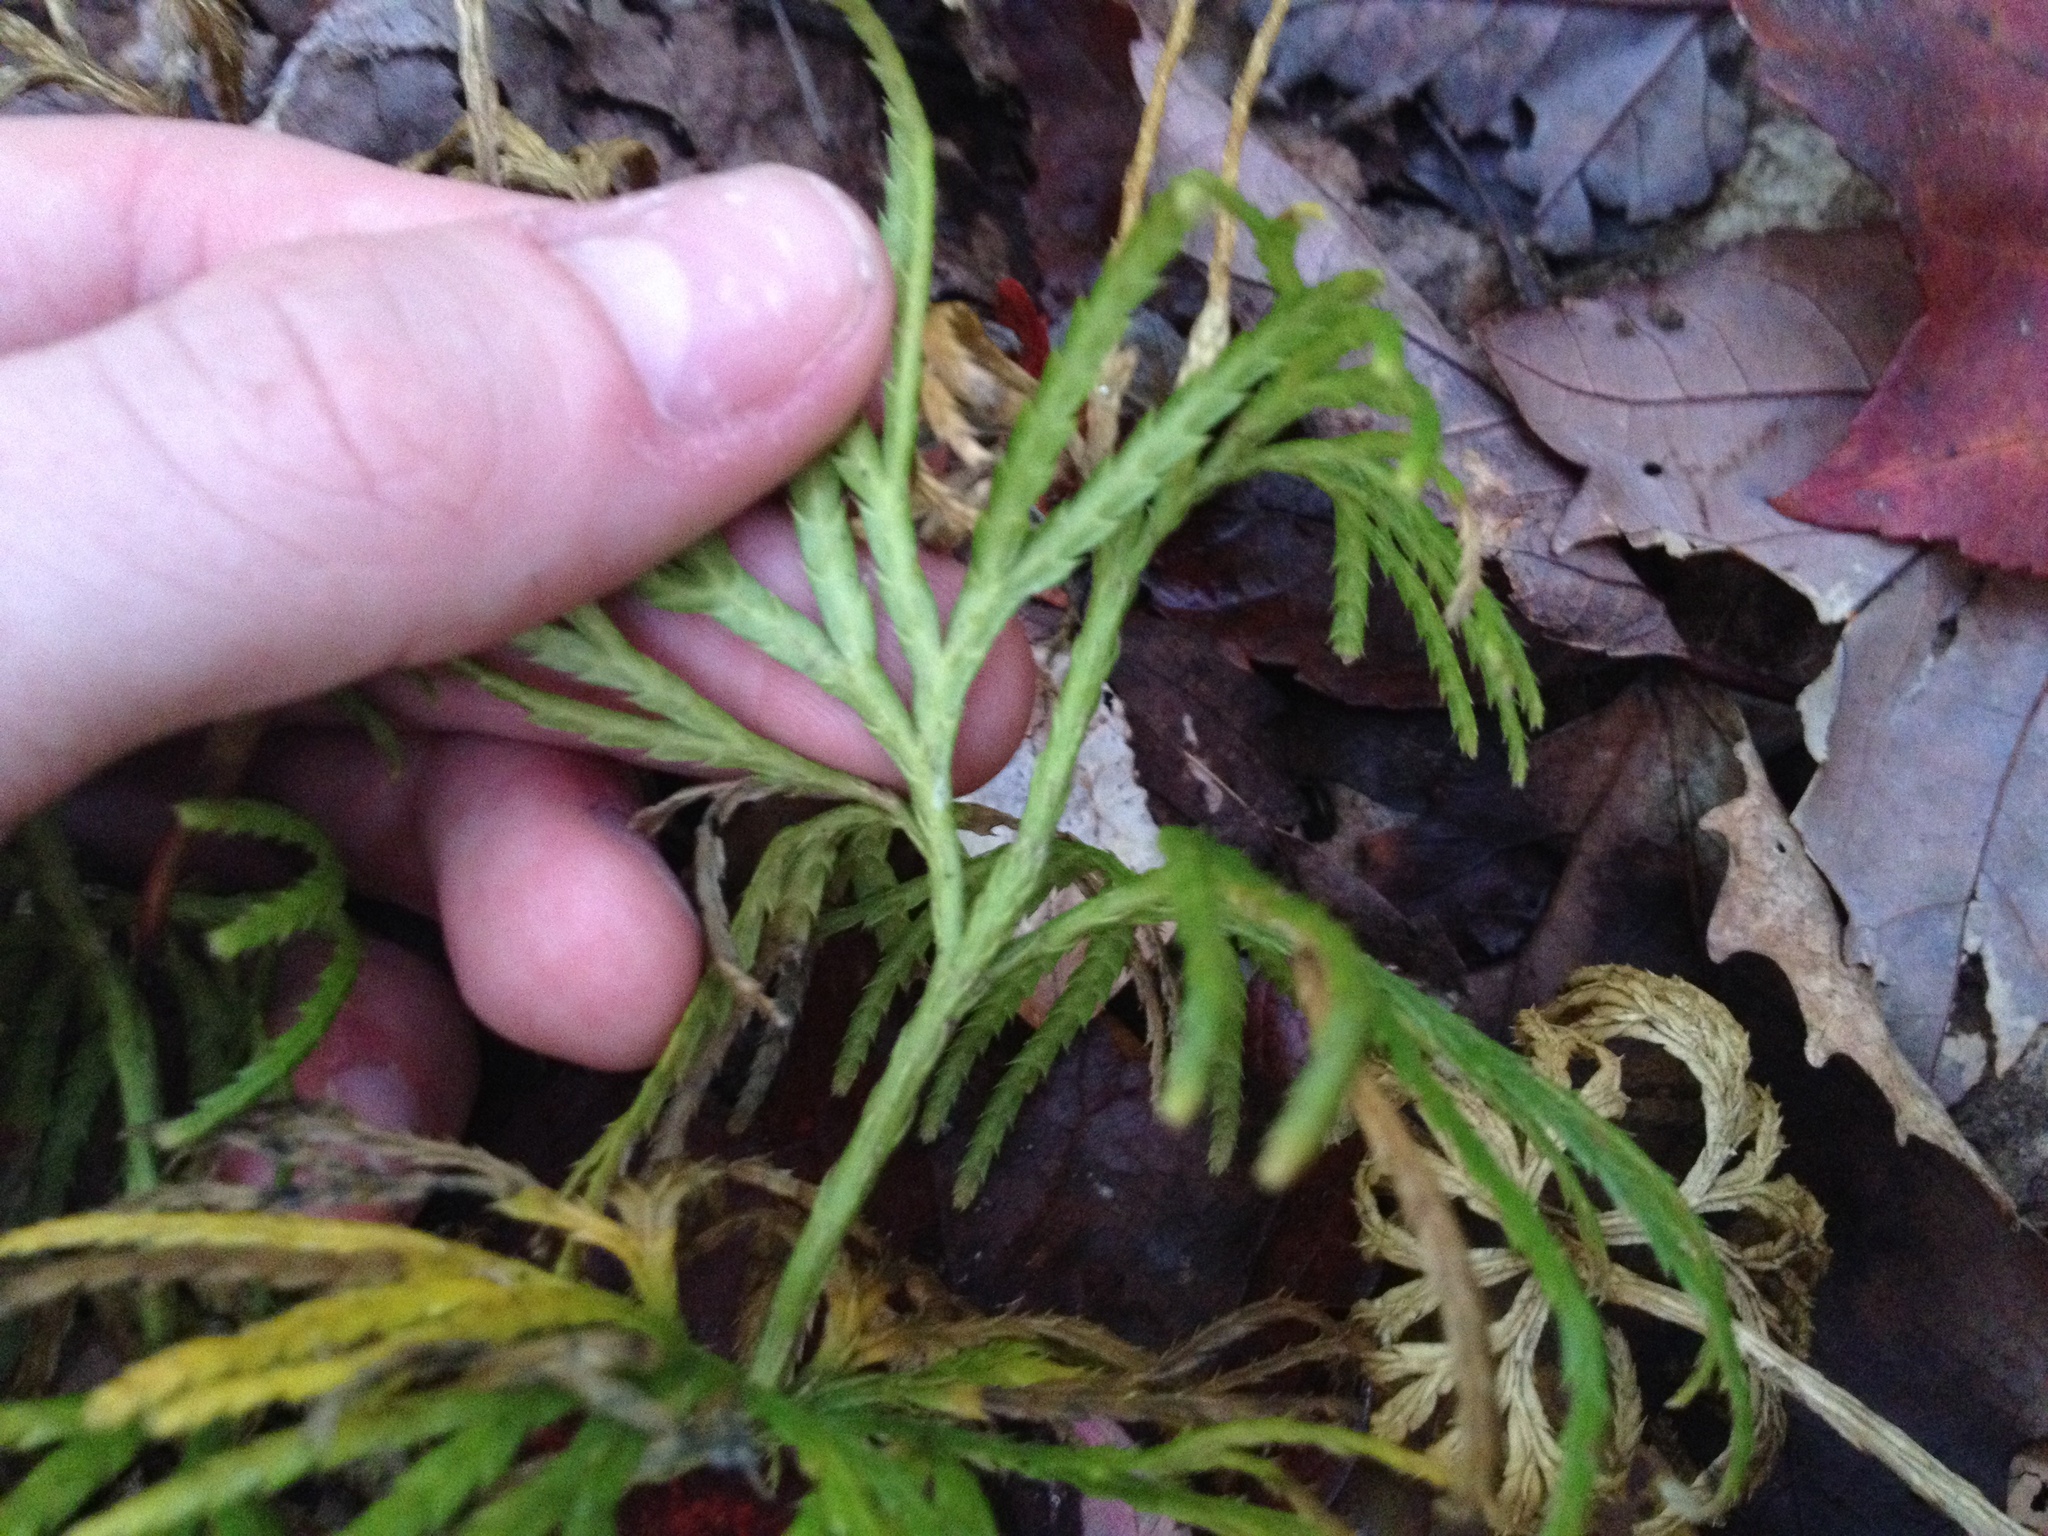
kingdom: Plantae
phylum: Tracheophyta
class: Lycopodiopsida
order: Lycopodiales
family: Lycopodiaceae
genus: Diphasiastrum
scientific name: Diphasiastrum digitatum
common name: Southern running-pine
